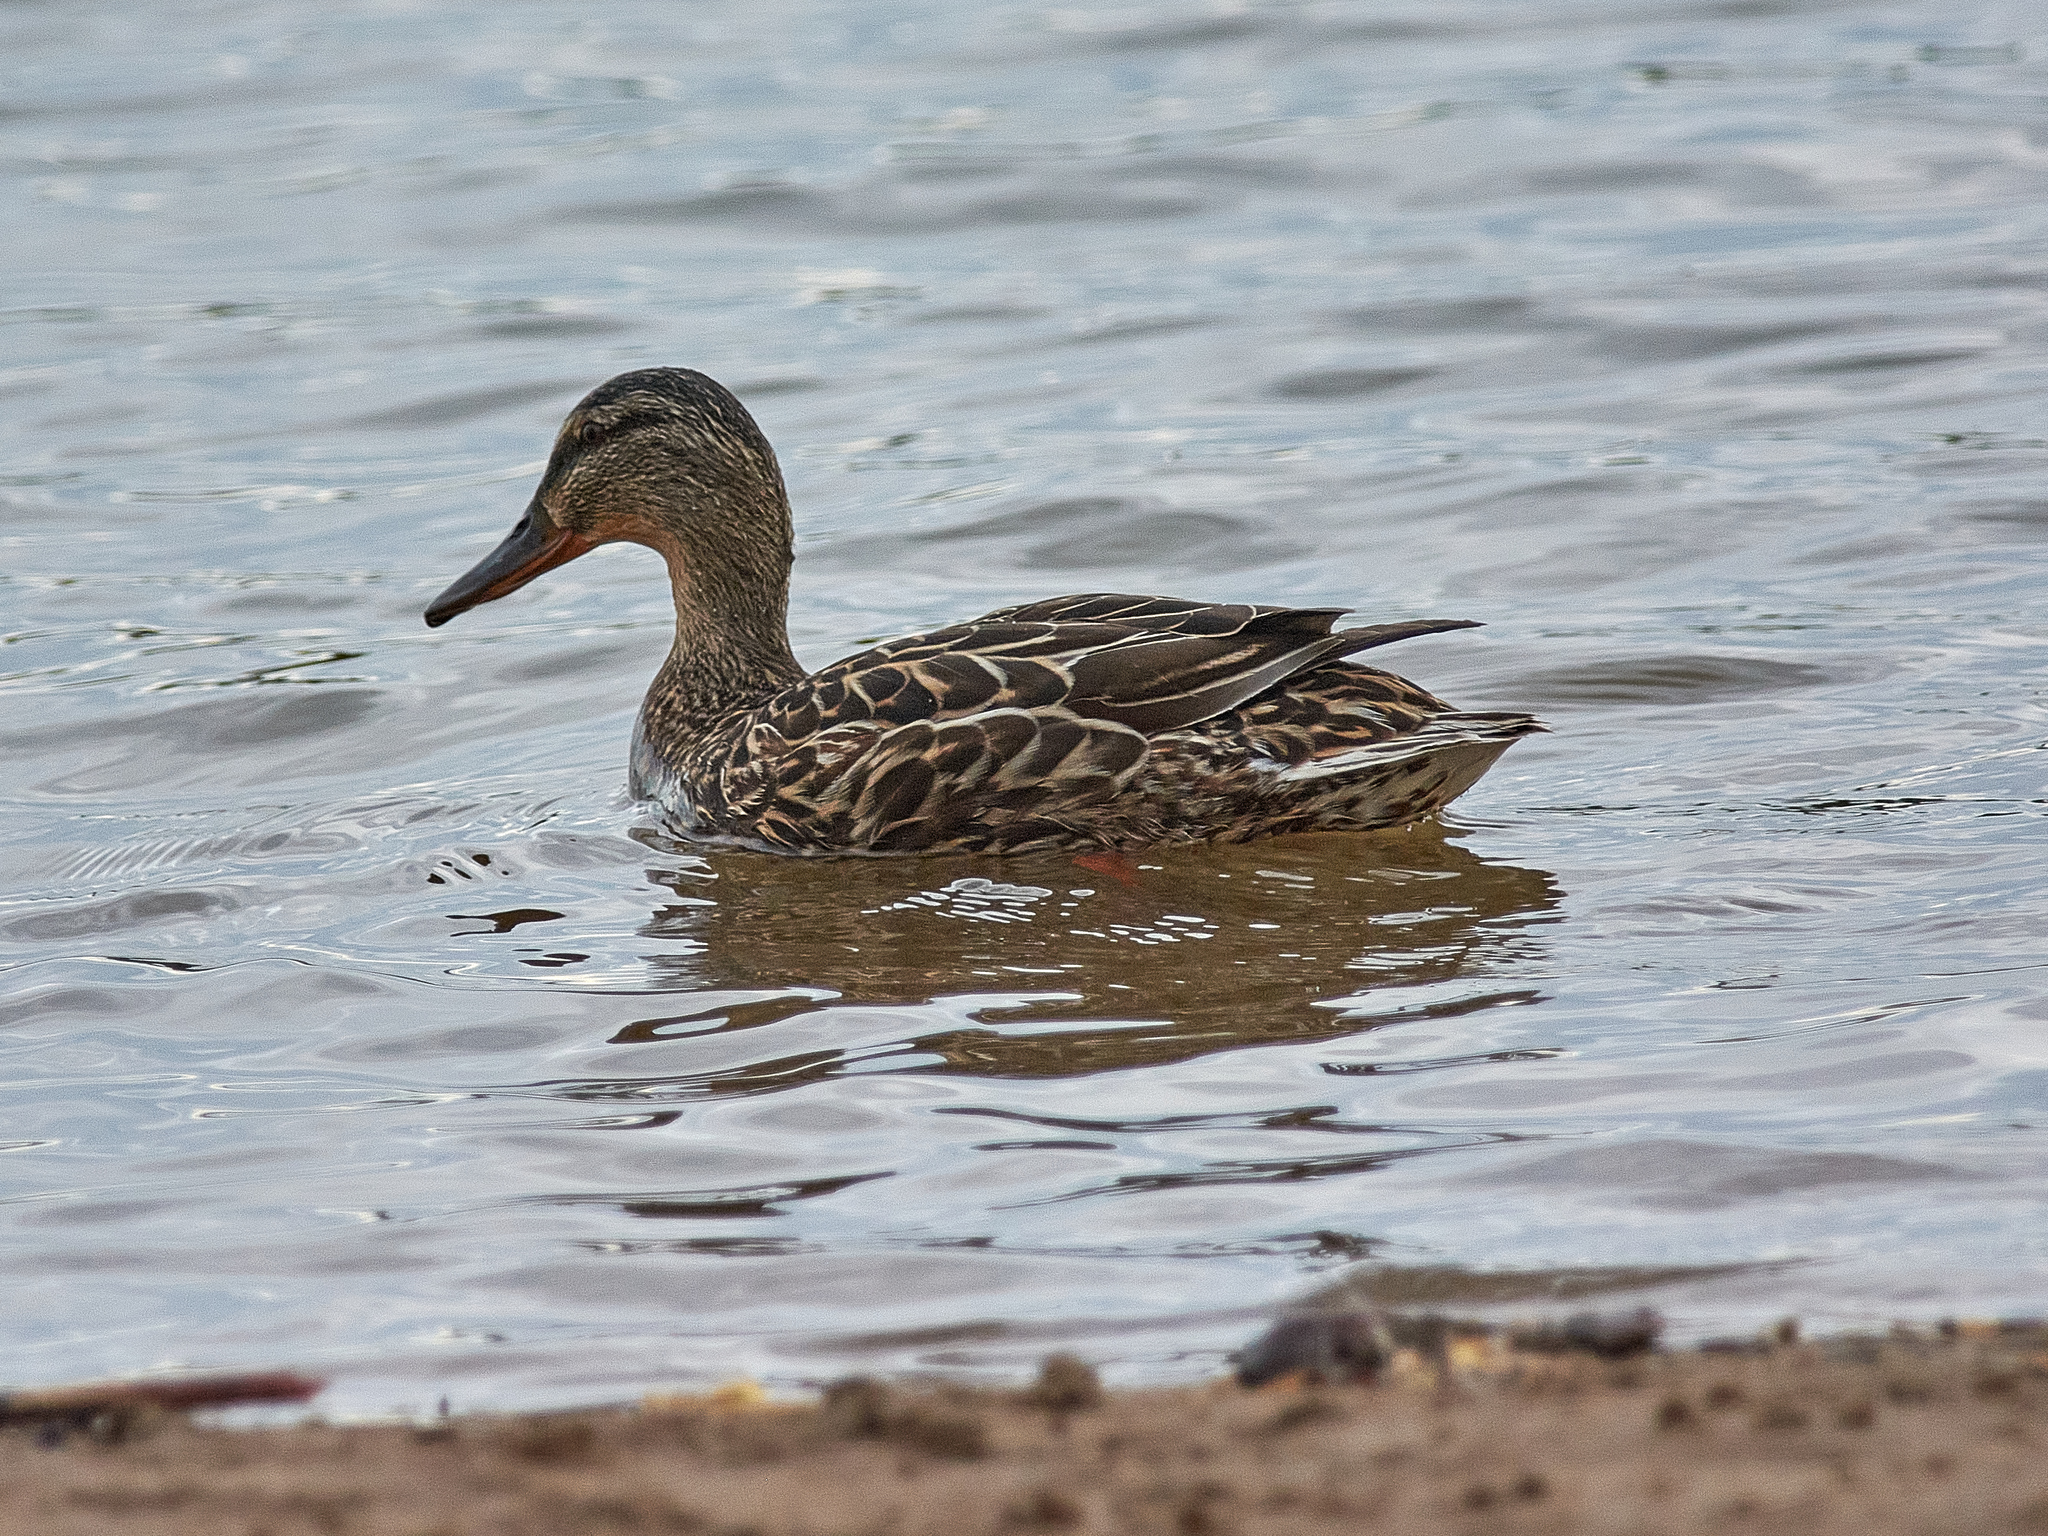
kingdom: Animalia
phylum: Chordata
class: Aves
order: Anseriformes
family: Anatidae
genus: Anas
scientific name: Anas platyrhynchos
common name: Mallard
